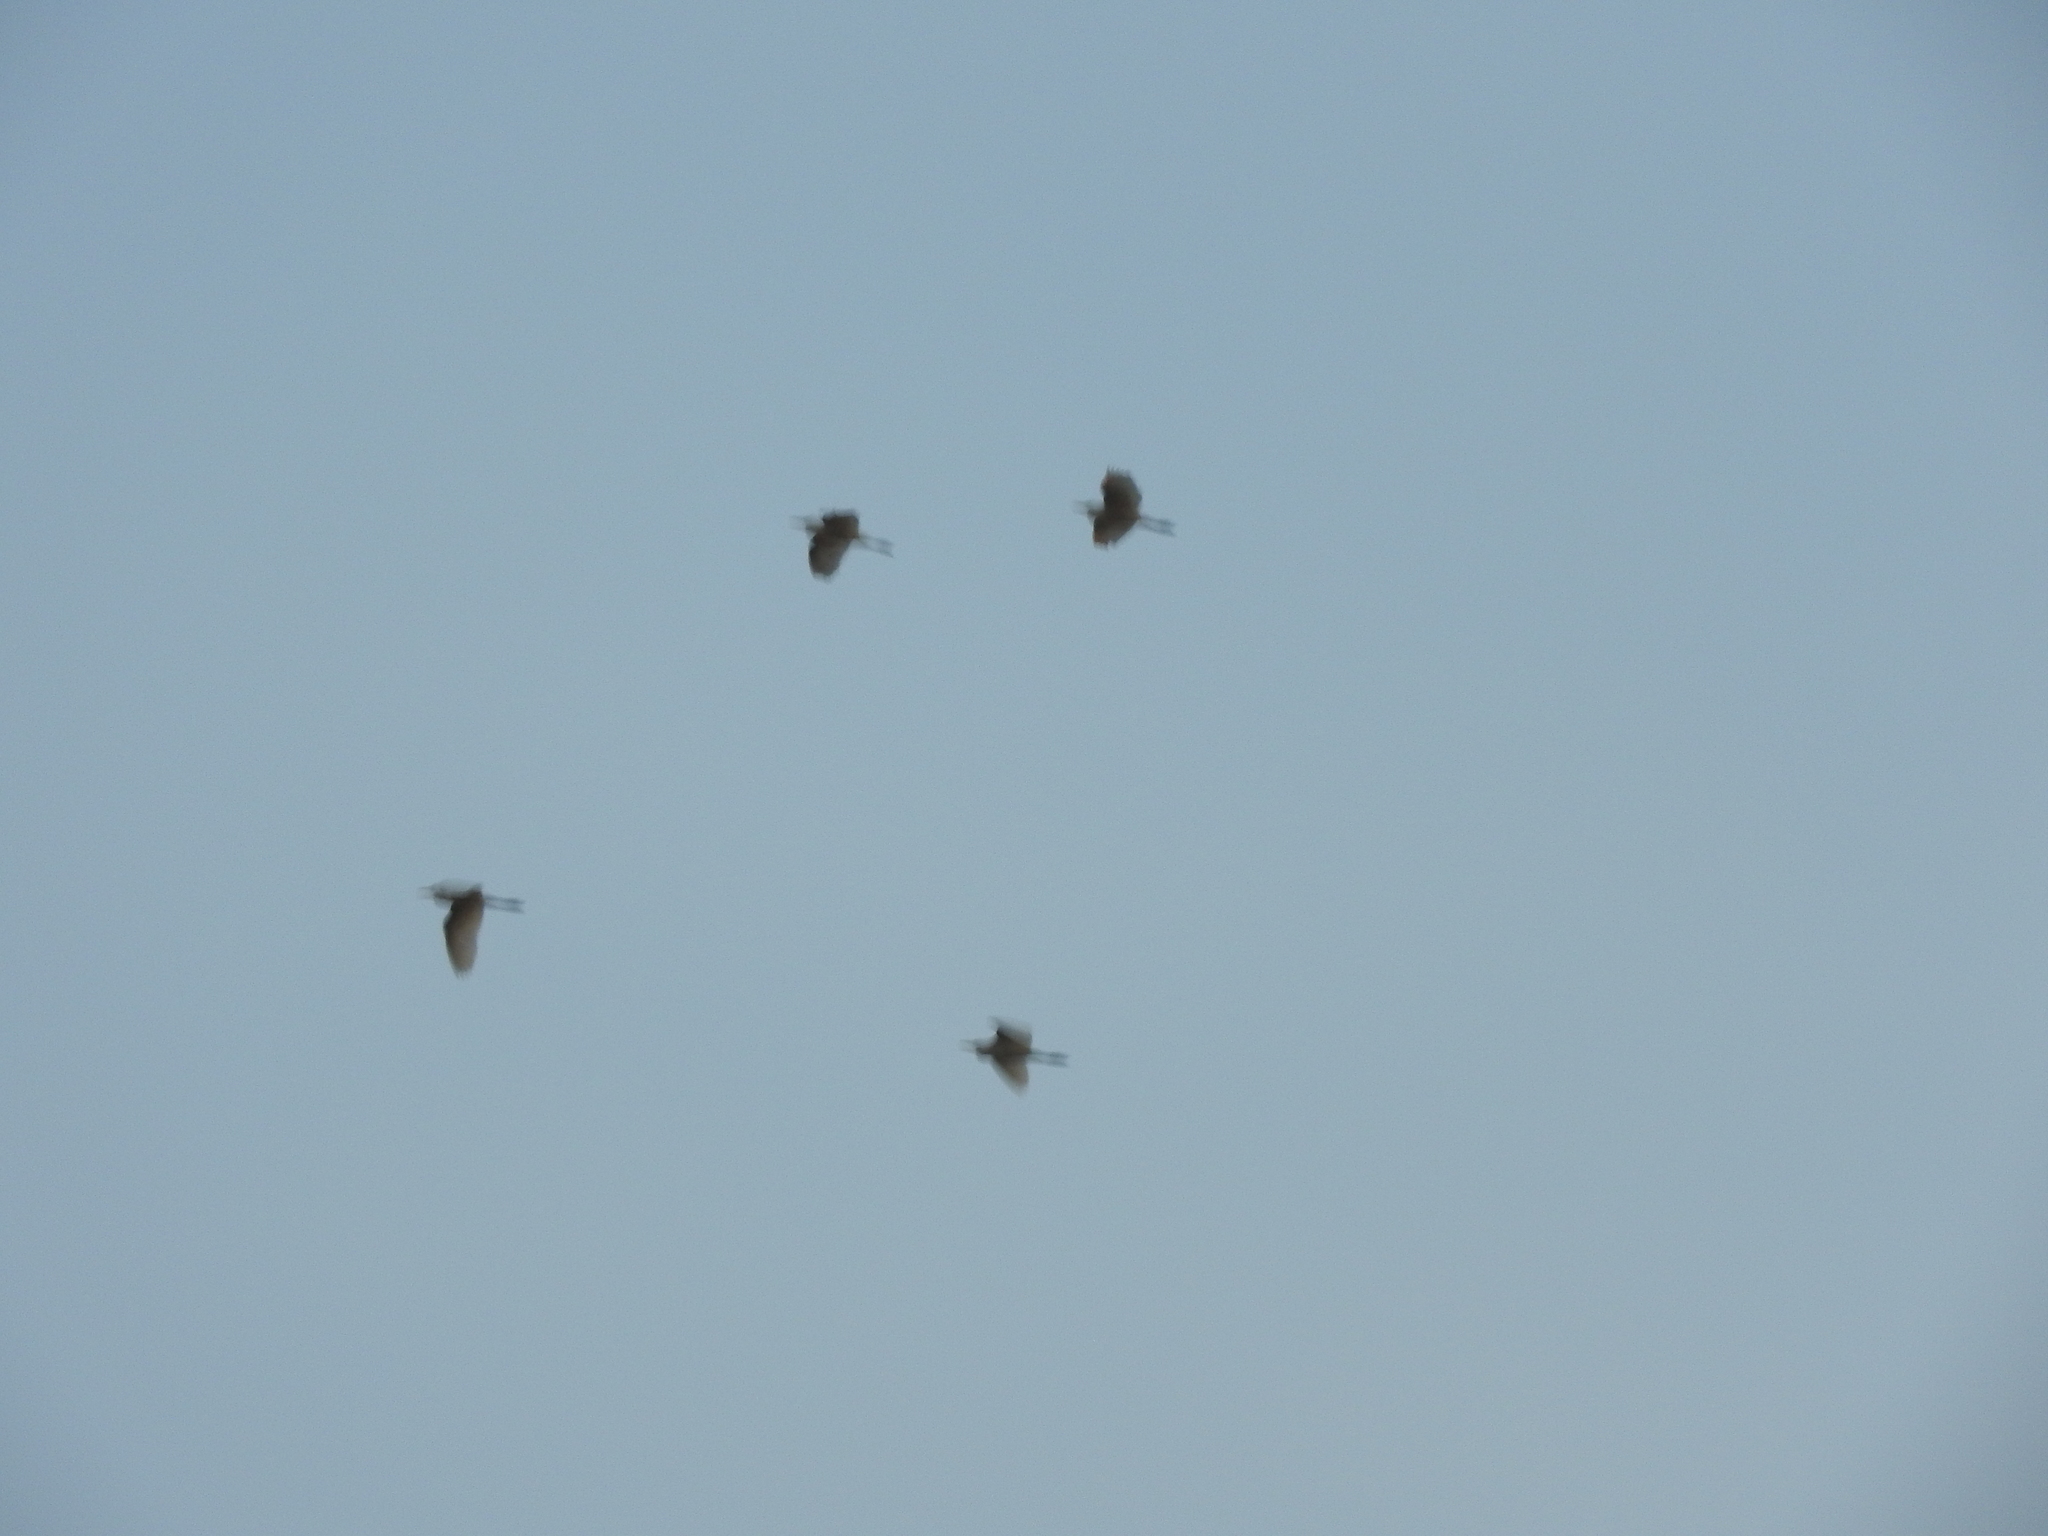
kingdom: Animalia
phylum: Chordata
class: Aves
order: Pelecaniformes
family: Ardeidae
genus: Bubulcus
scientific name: Bubulcus ibis
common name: Cattle egret
